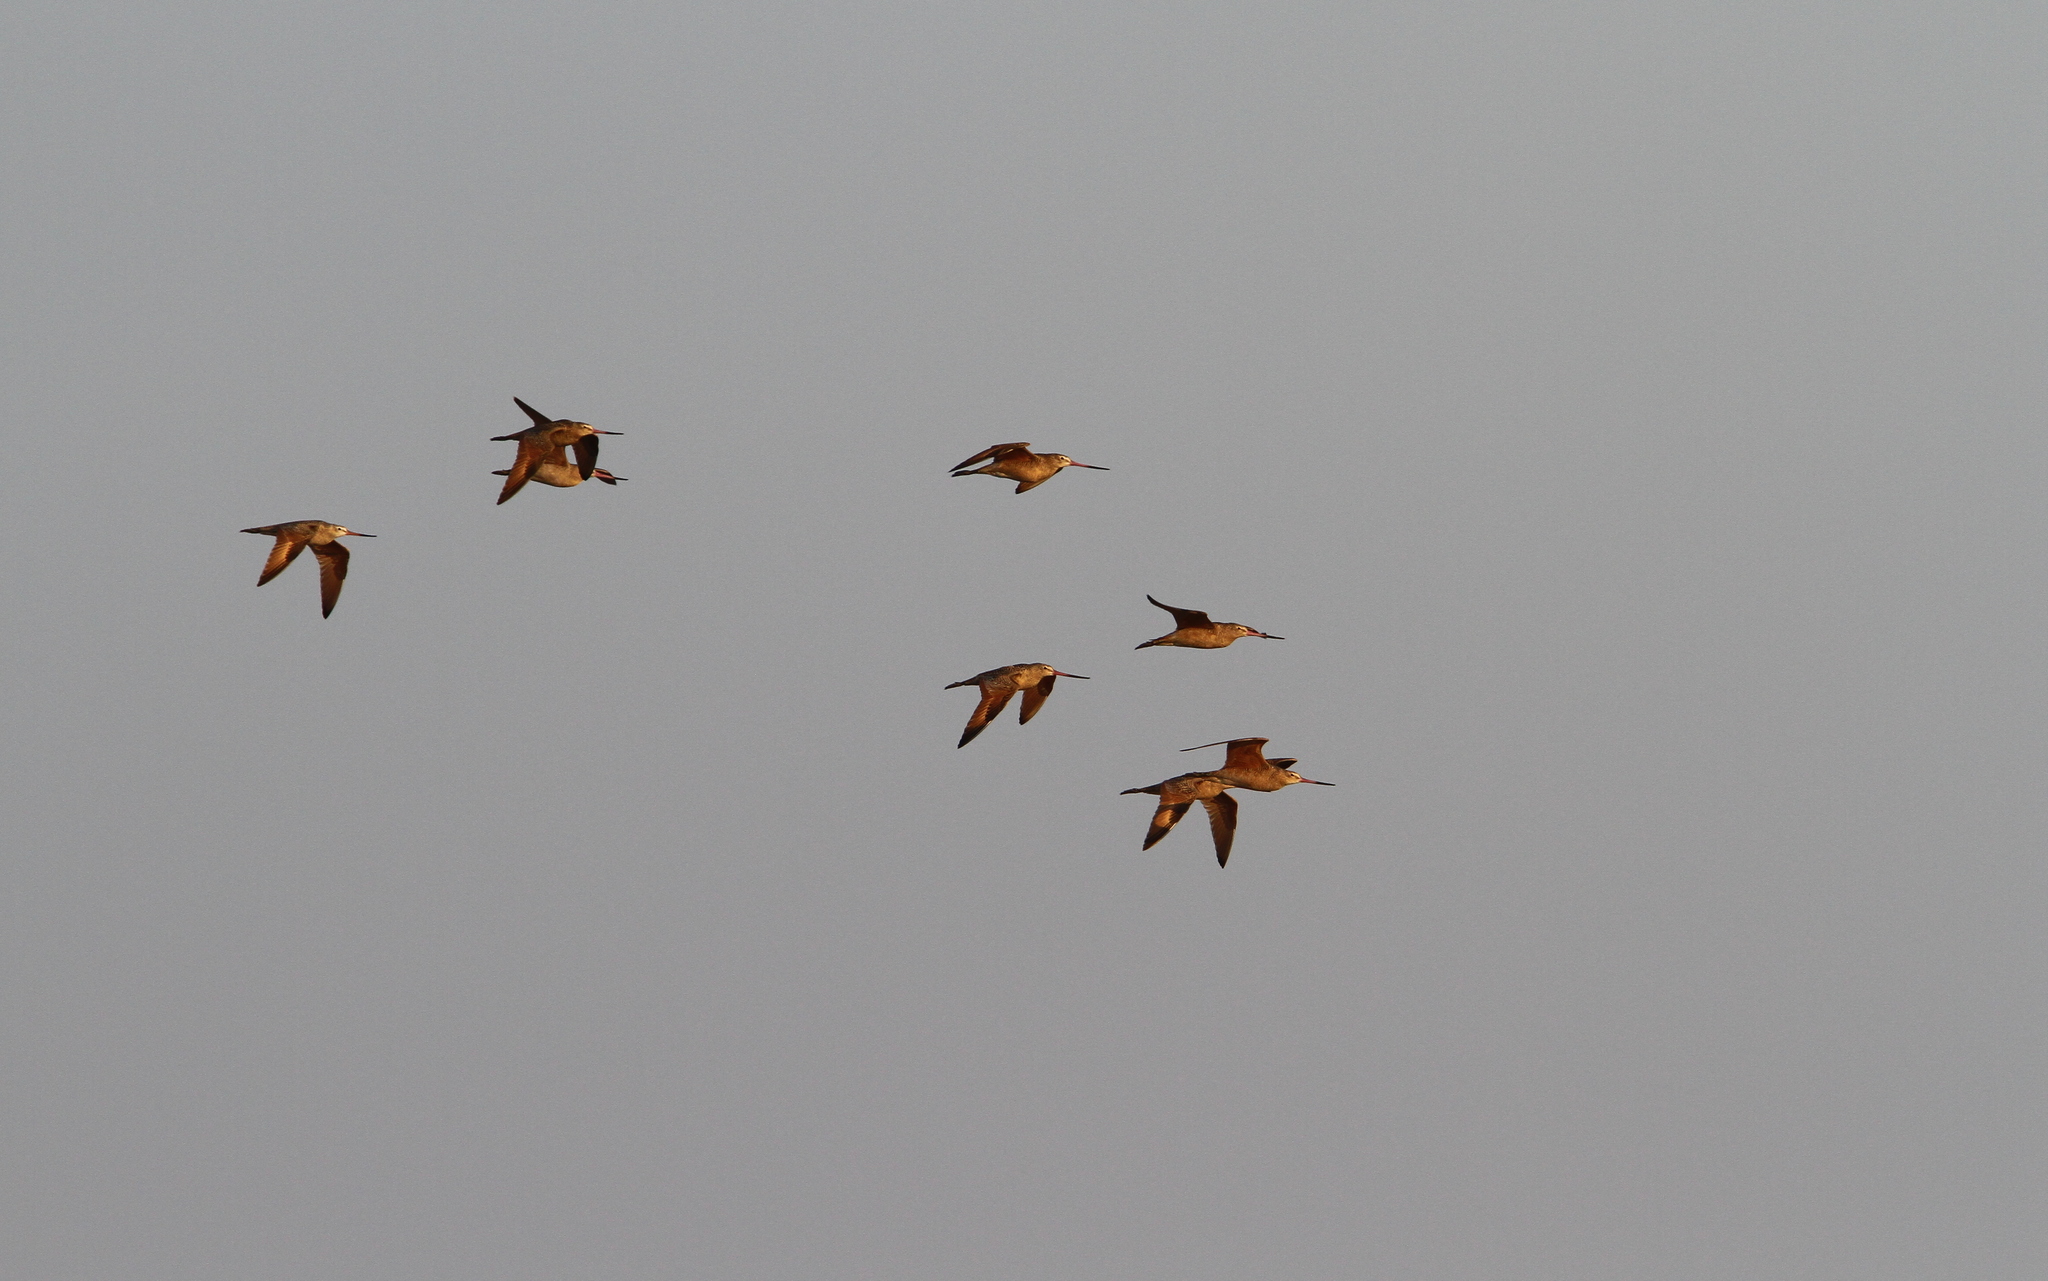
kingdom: Animalia
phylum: Chordata
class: Aves
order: Charadriiformes
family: Scolopacidae
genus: Limosa
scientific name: Limosa fedoa
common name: Marbled godwit
